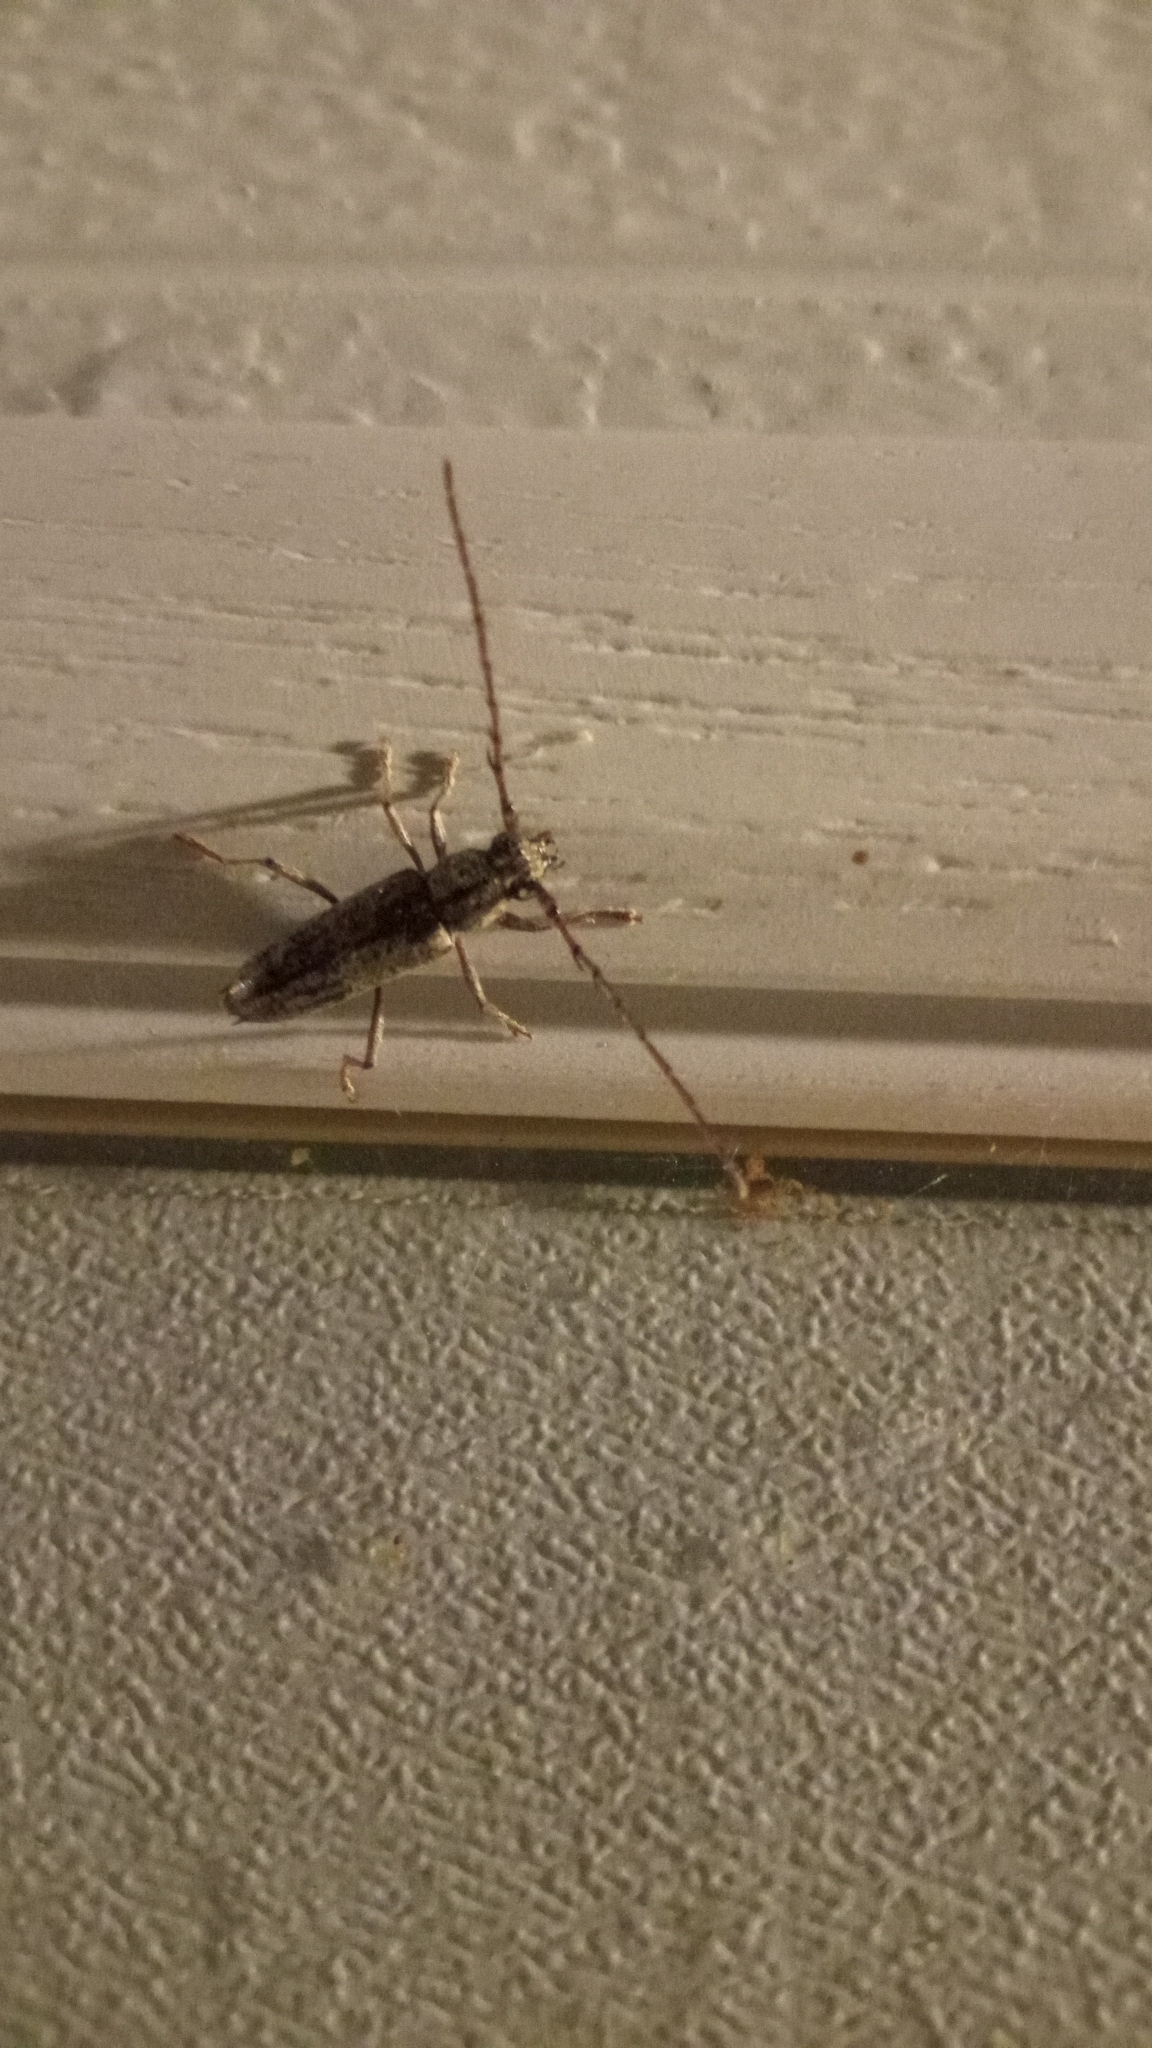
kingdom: Animalia
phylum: Arthropoda
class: Insecta
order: Coleoptera
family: Cerambycidae
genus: Elaphidion
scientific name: Elaphidion mucronatum
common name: Spined oak borer
